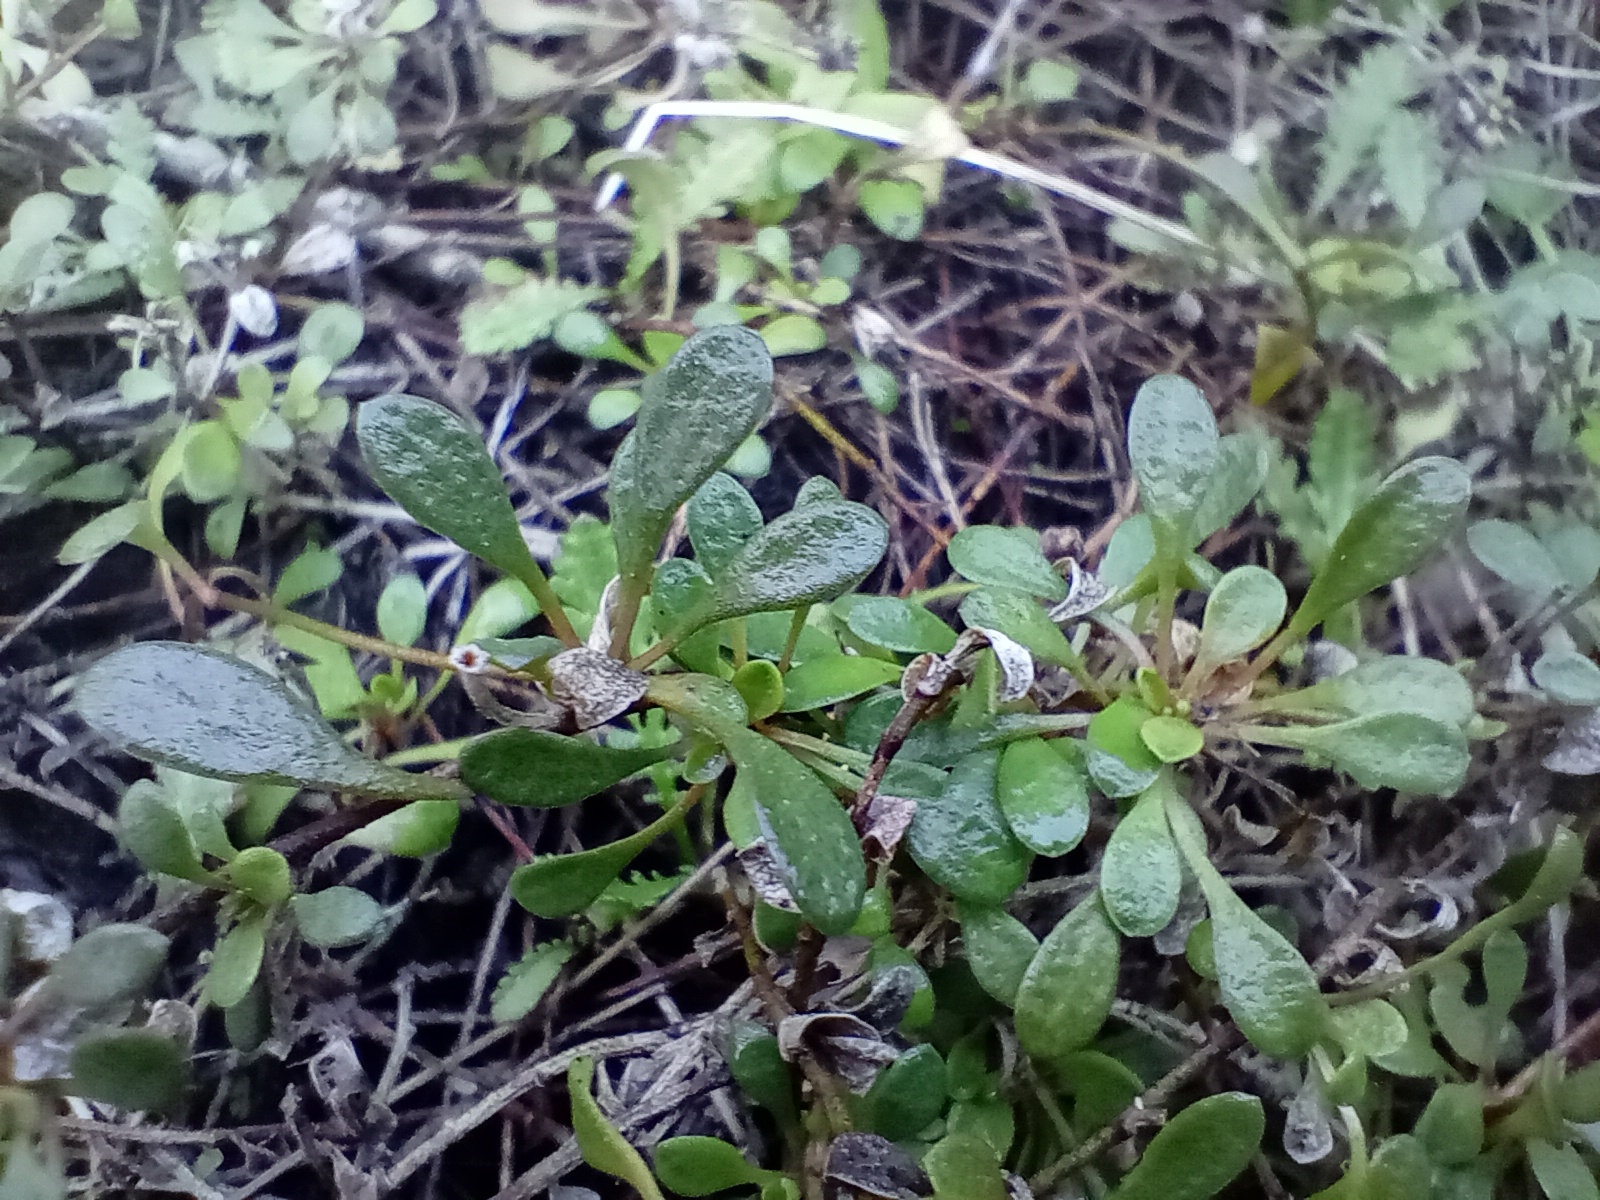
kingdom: Plantae
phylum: Tracheophyta
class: Magnoliopsida
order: Ericales
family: Primulaceae
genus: Samolus
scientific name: Samolus repens
